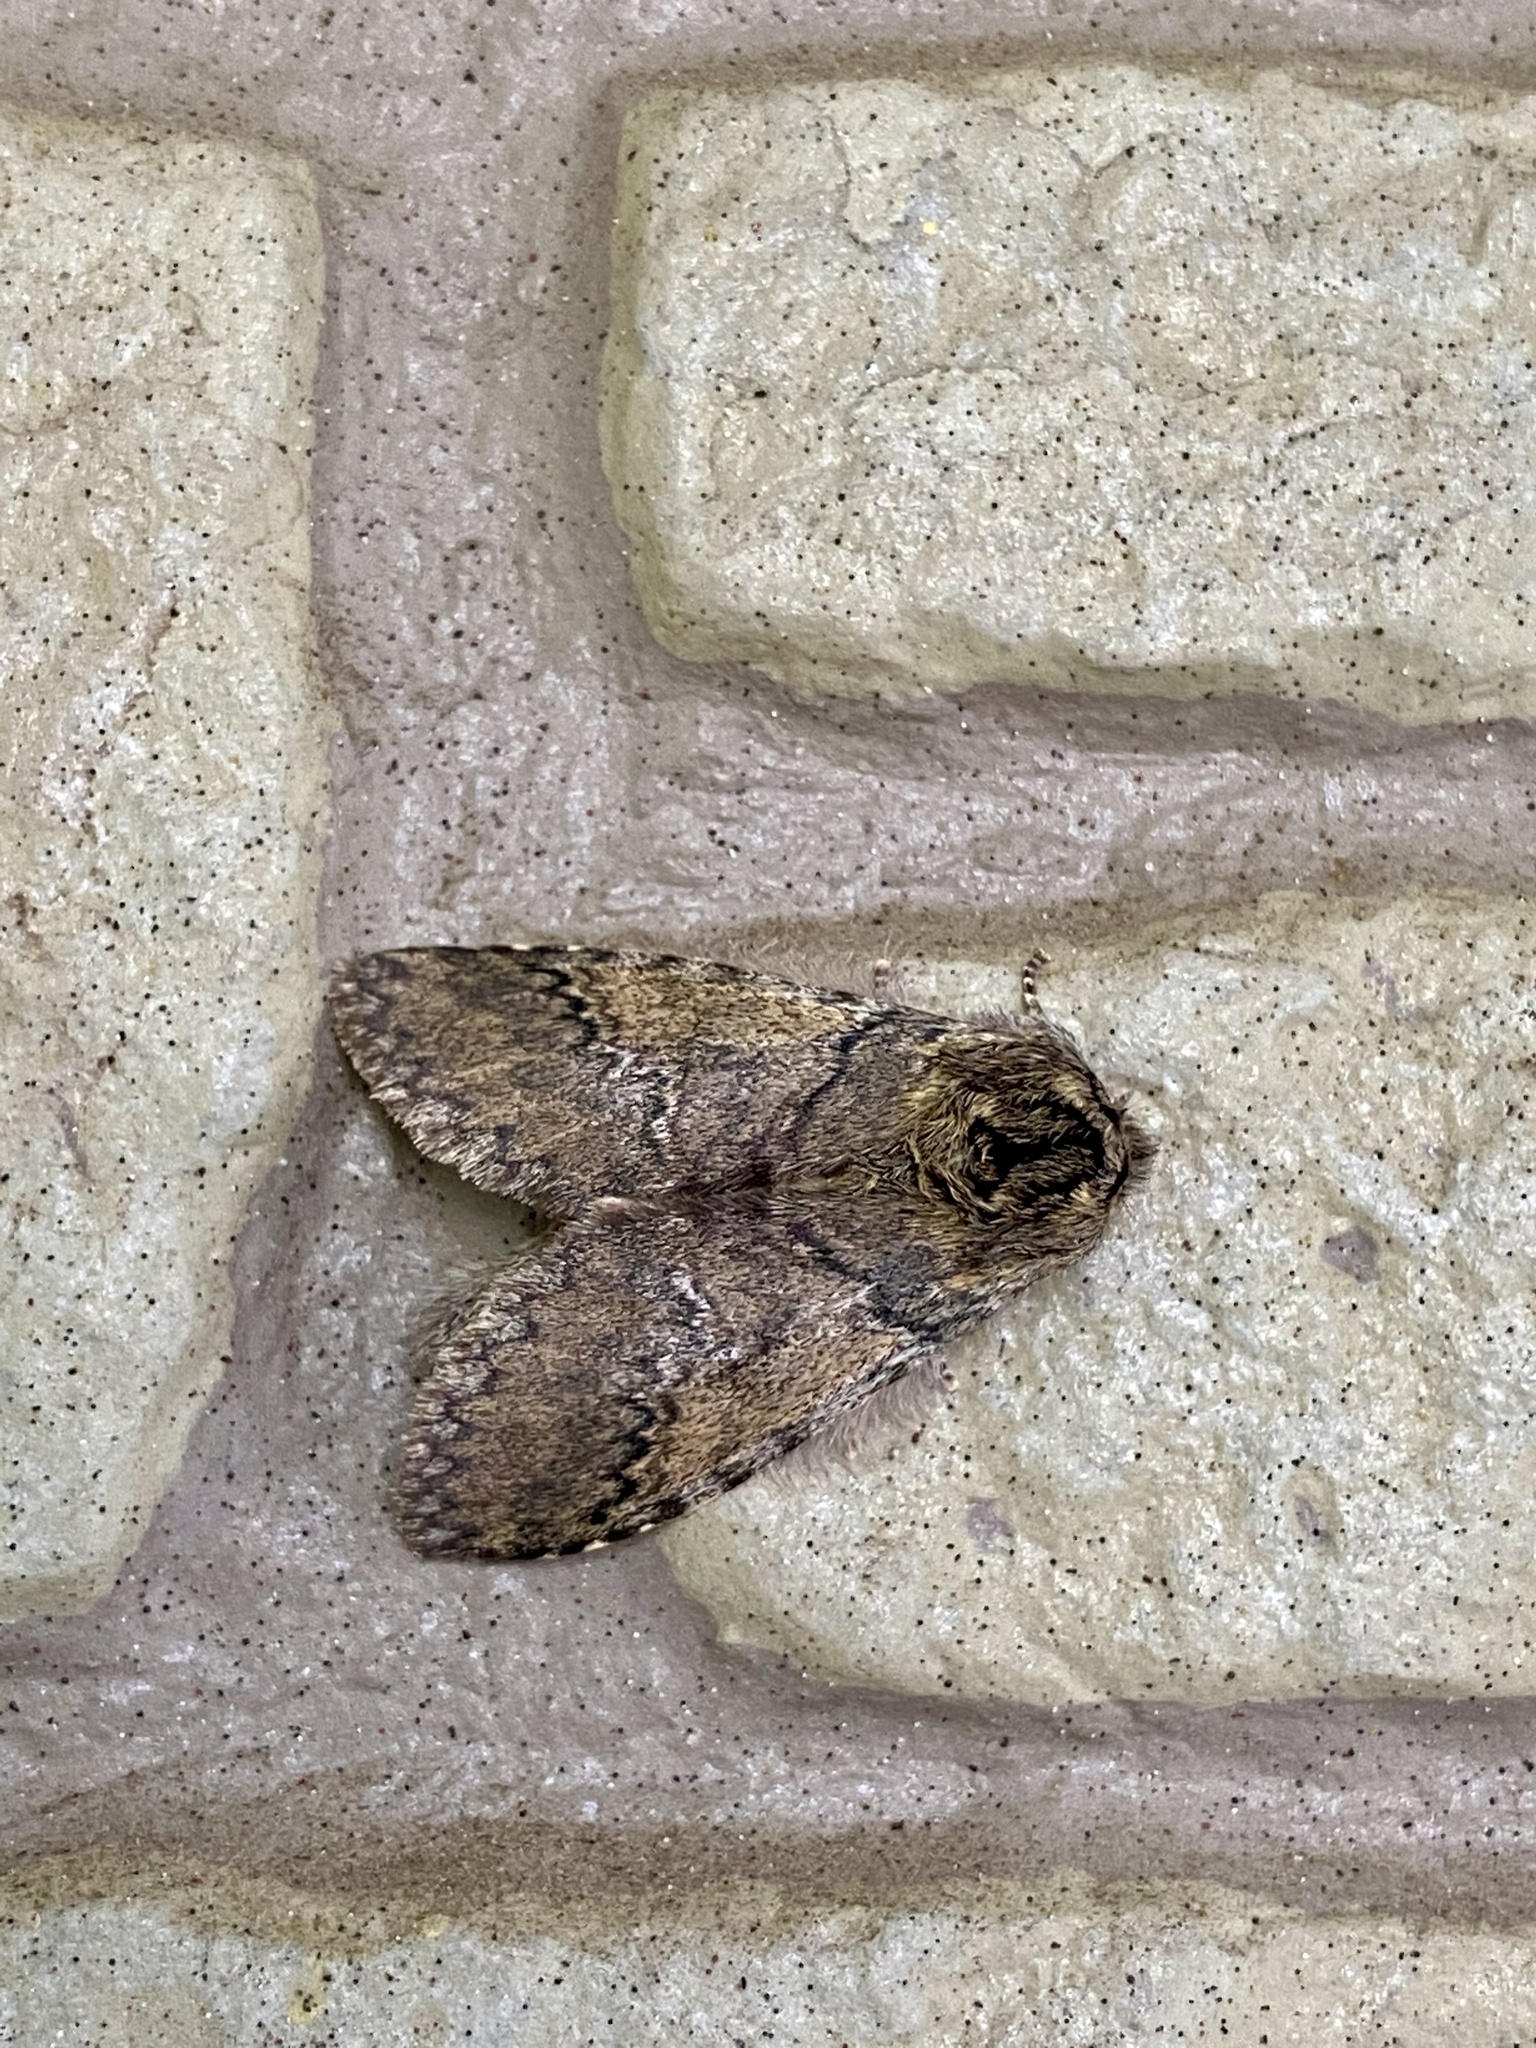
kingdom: Animalia
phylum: Arthropoda
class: Insecta
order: Lepidoptera
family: Notodontidae
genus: Disparia
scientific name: Disparia diluta
